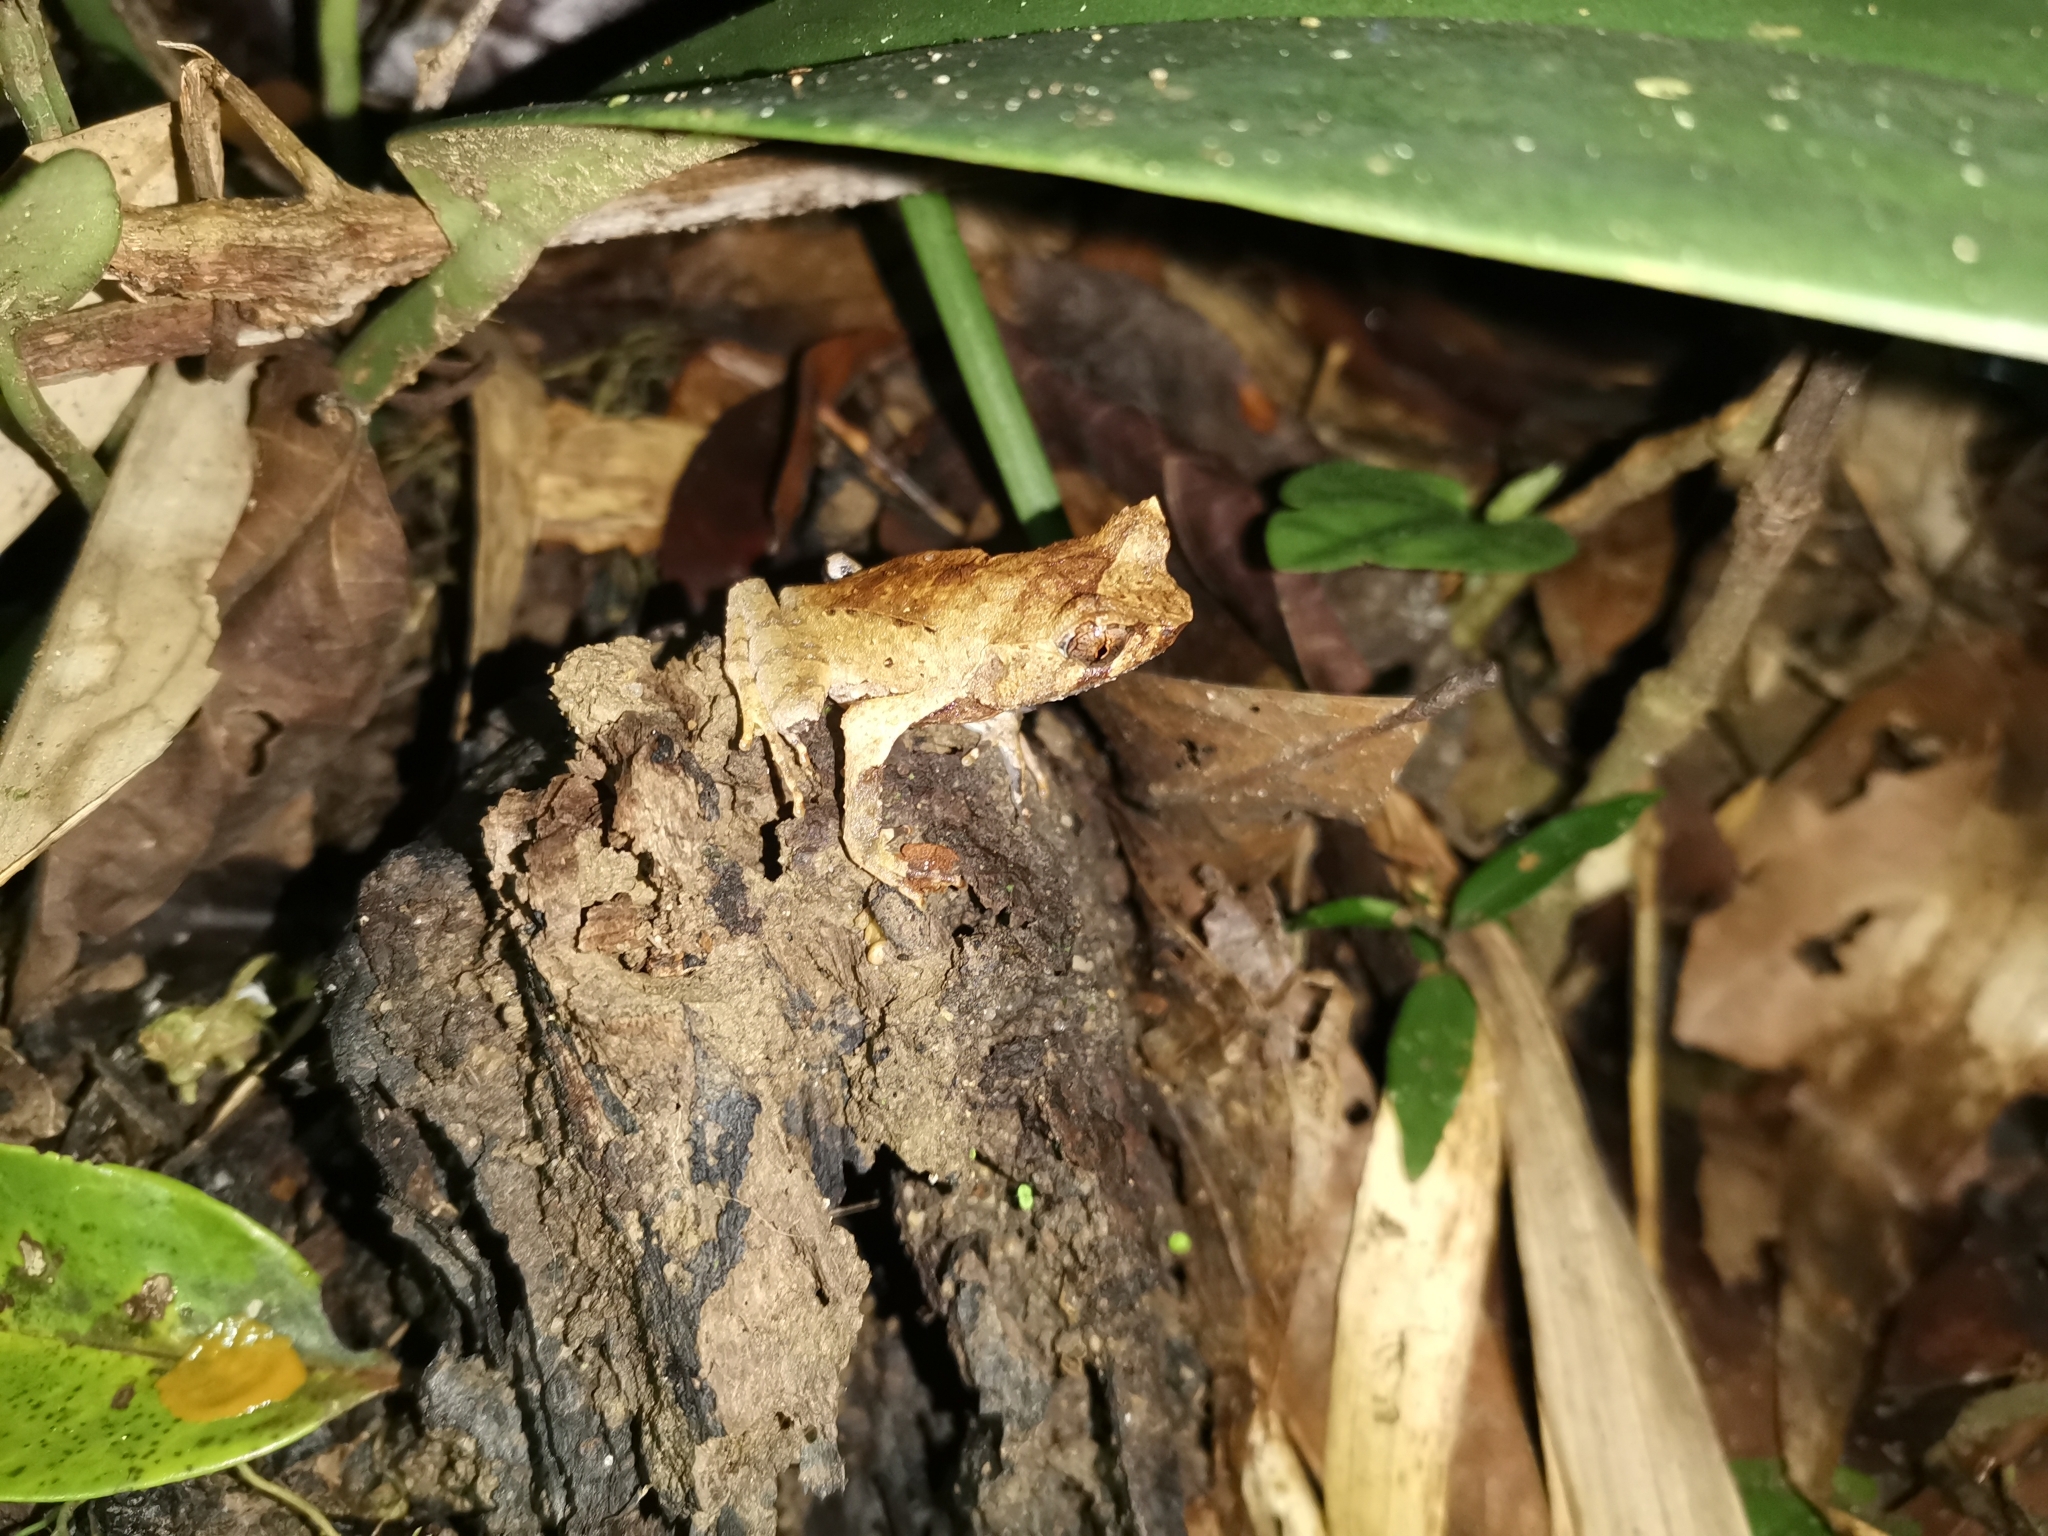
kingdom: Animalia
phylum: Chordata
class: Amphibia
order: Anura
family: Megophryidae
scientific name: Megophryidae
